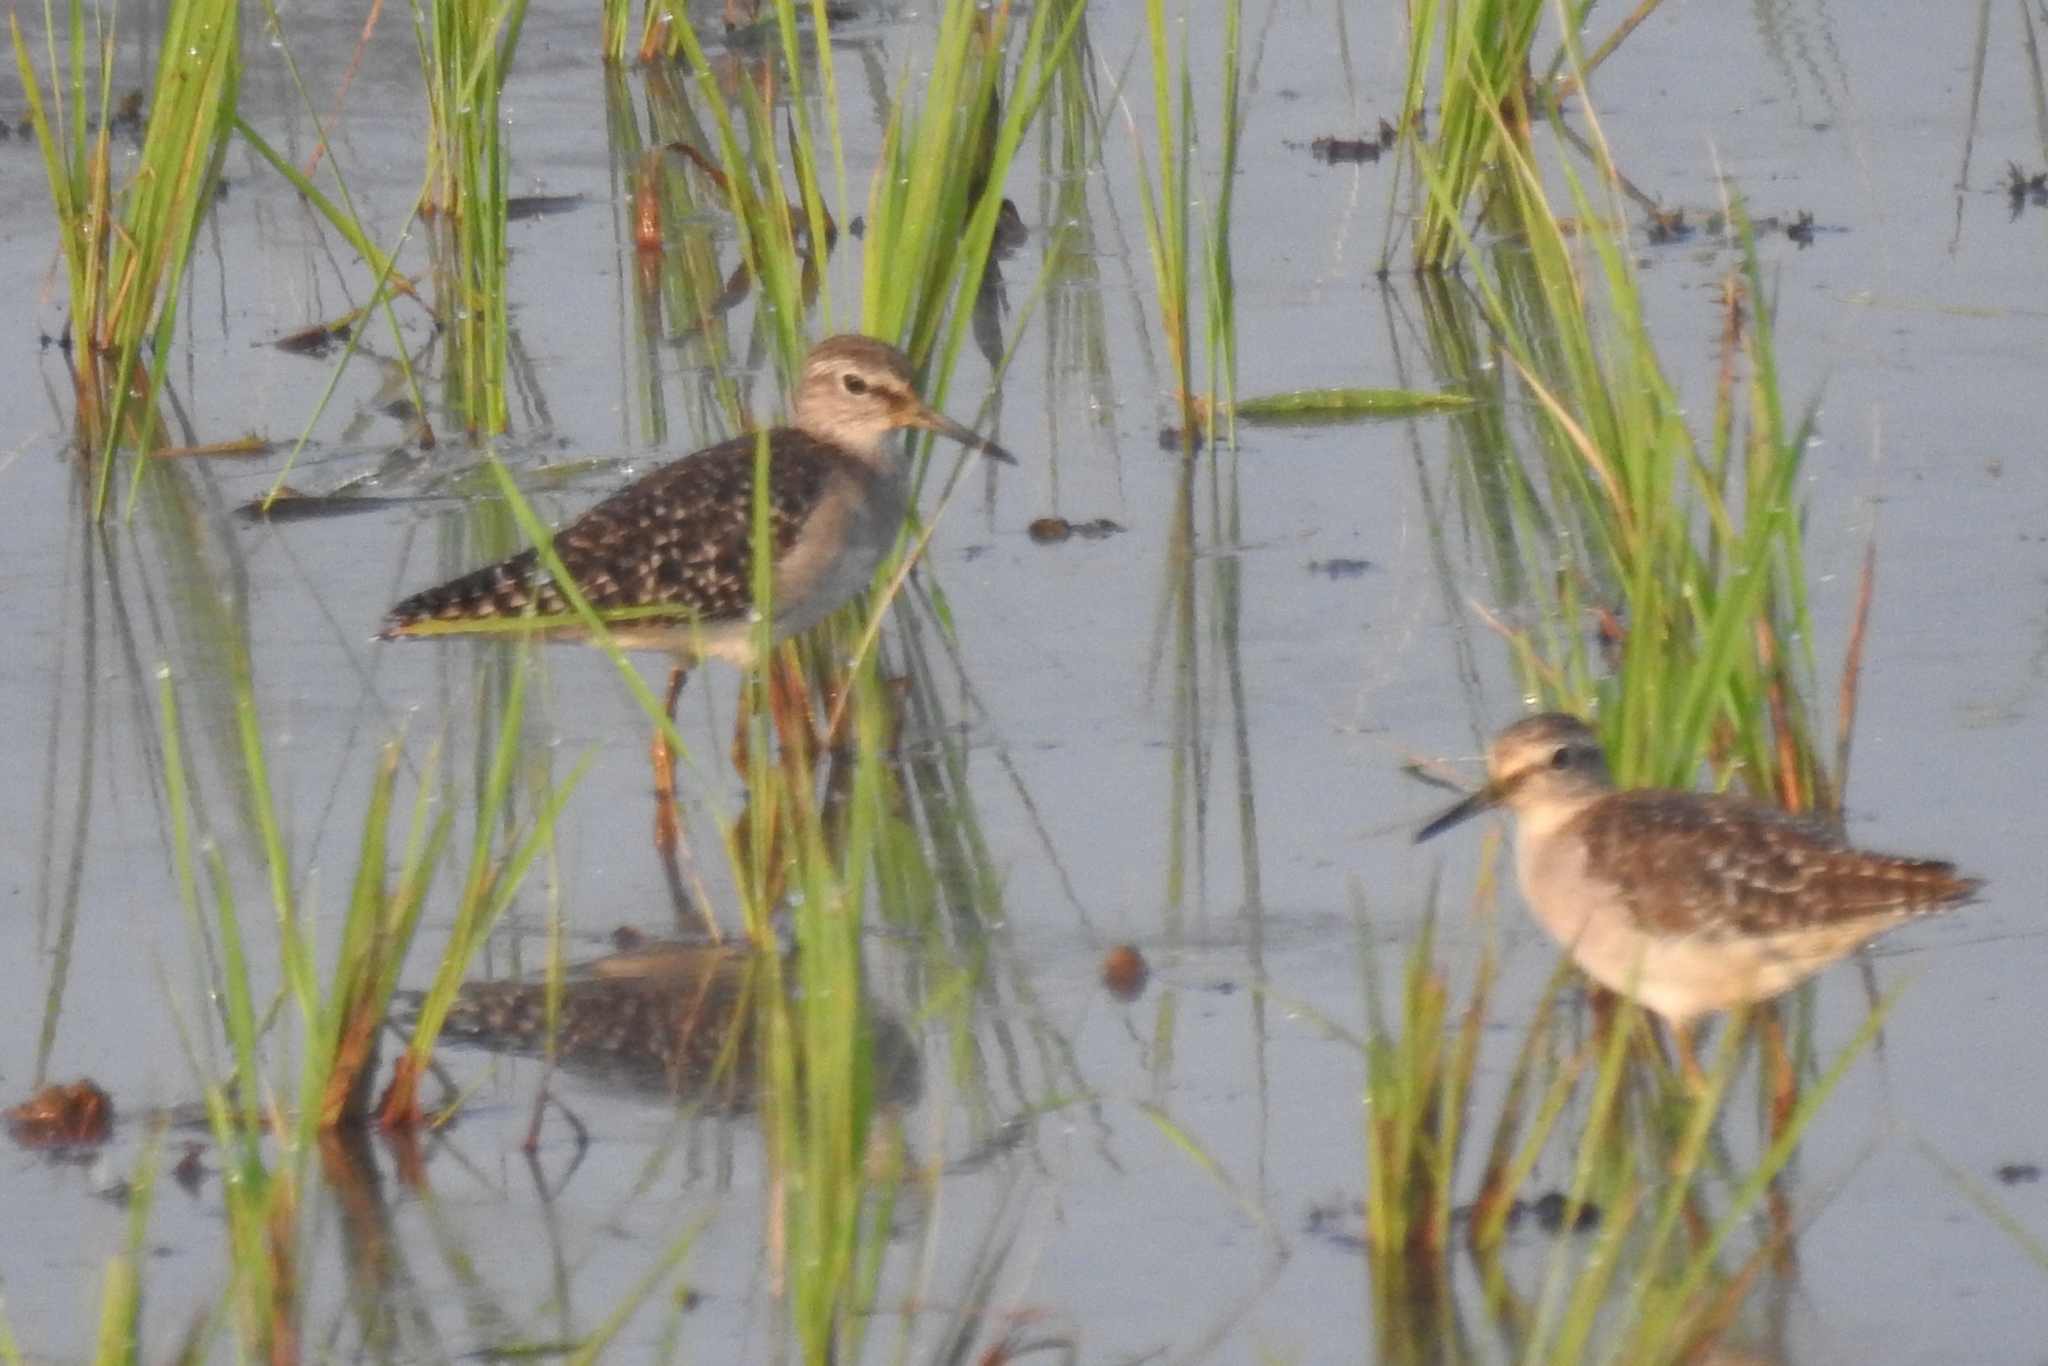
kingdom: Animalia
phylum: Chordata
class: Aves
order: Charadriiformes
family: Scolopacidae
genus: Tringa
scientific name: Tringa glareola
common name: Wood sandpiper
